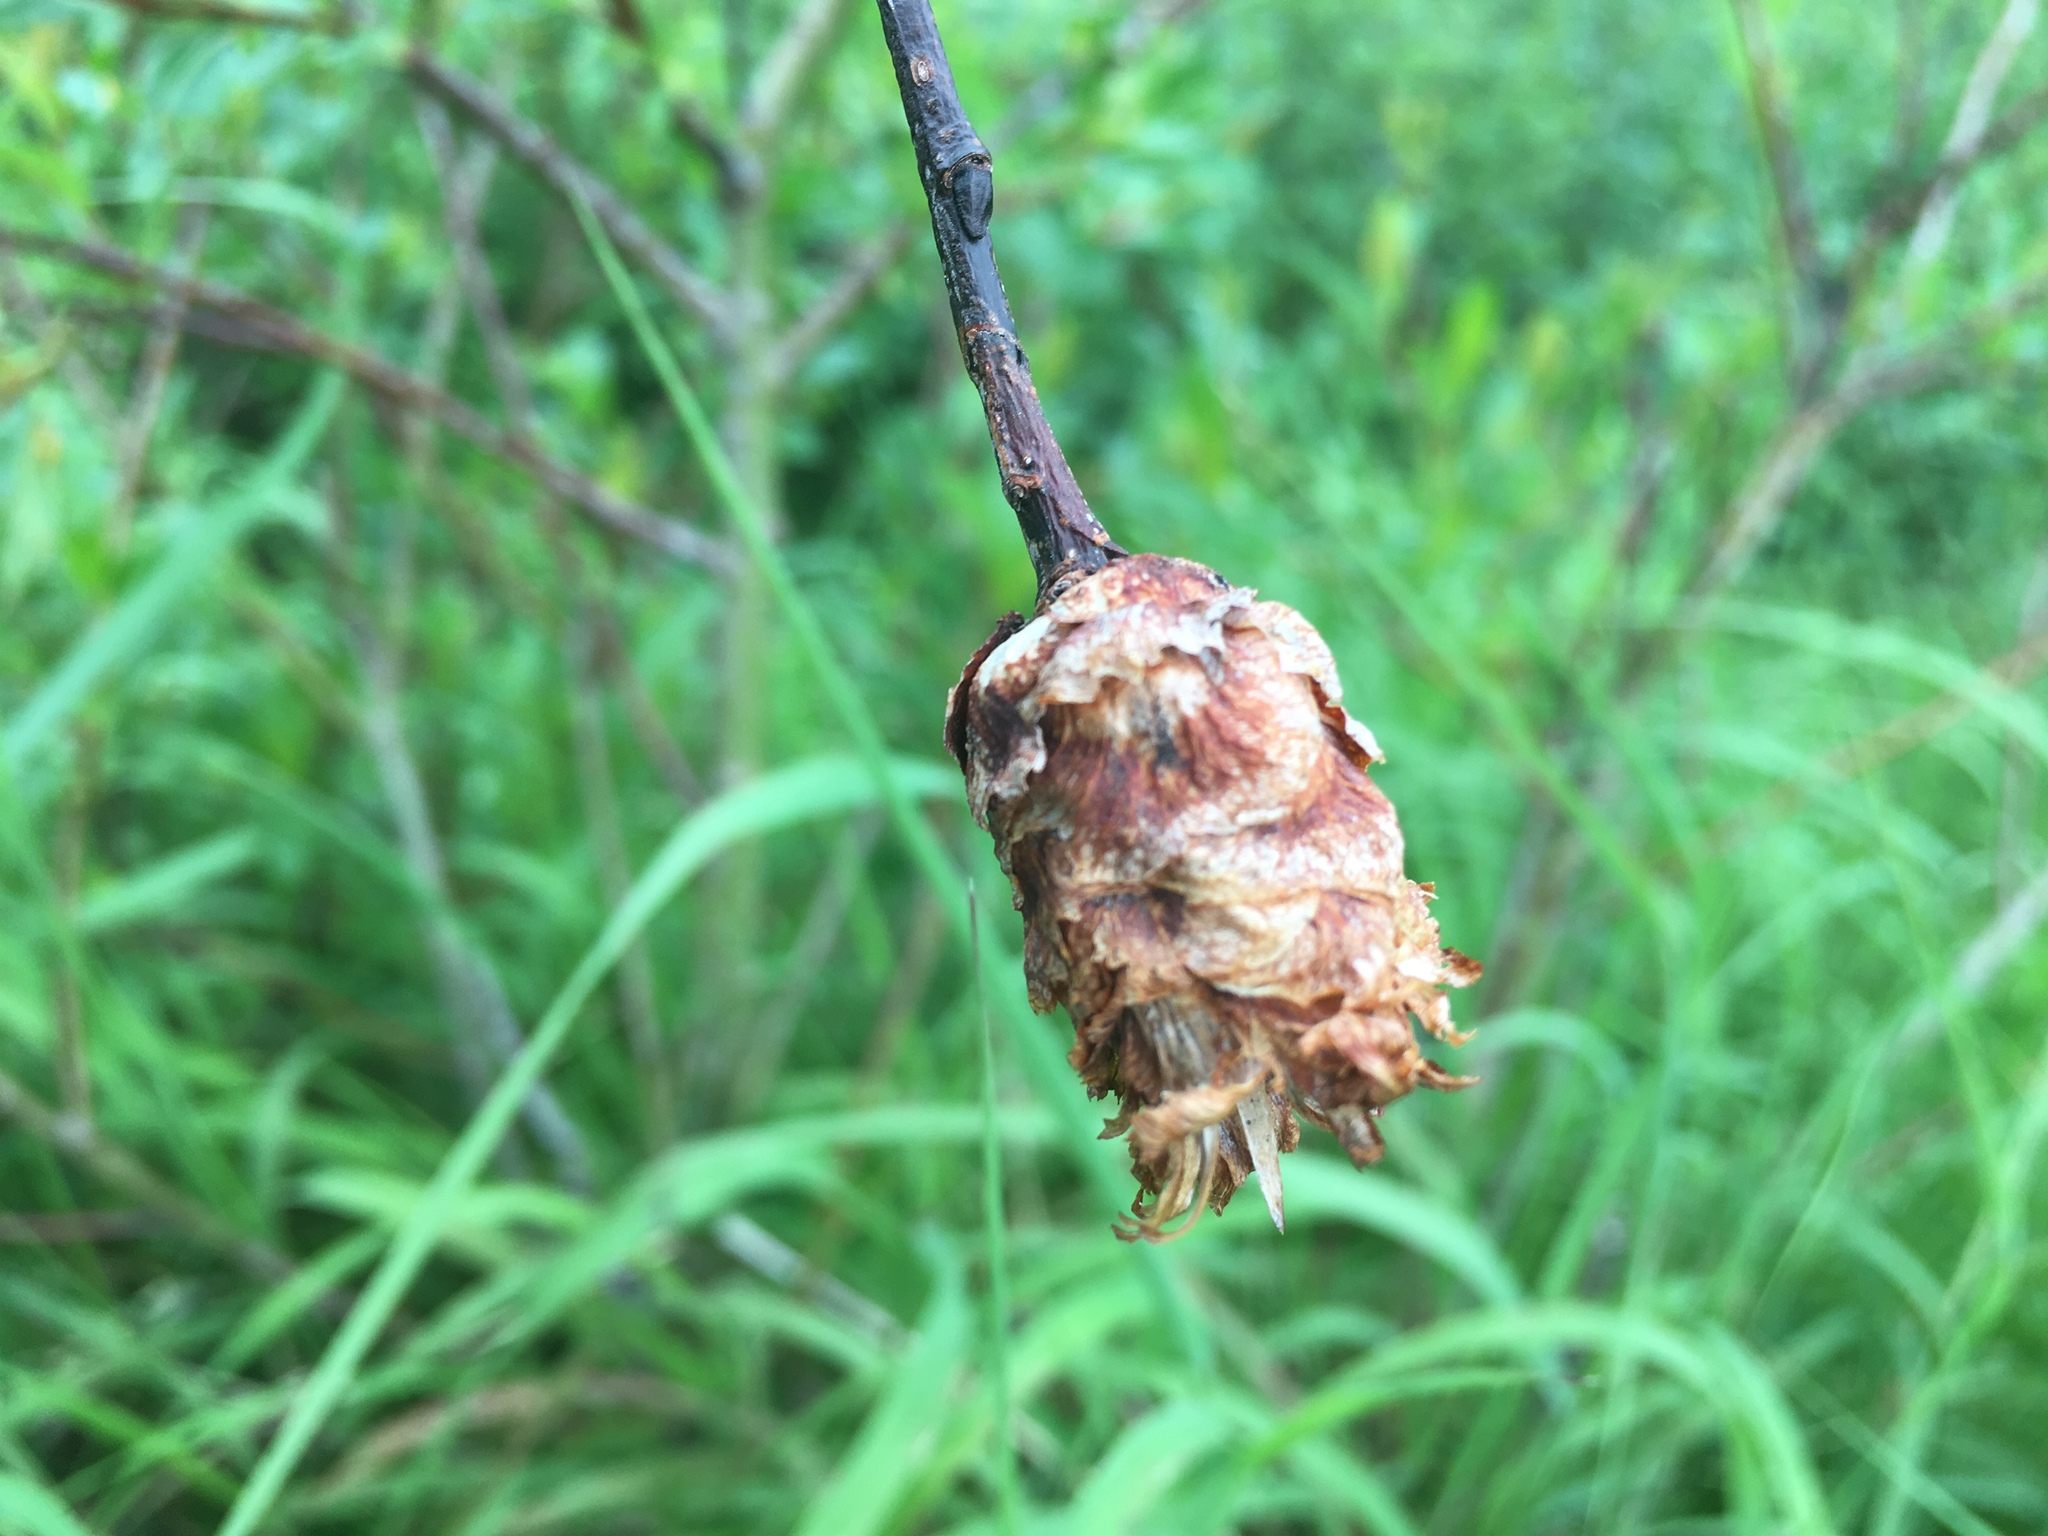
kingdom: Animalia
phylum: Arthropoda
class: Insecta
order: Diptera
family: Cecidomyiidae
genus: Rabdophaga
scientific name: Rabdophaga strobiloides
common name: Willow pinecone gall midge
